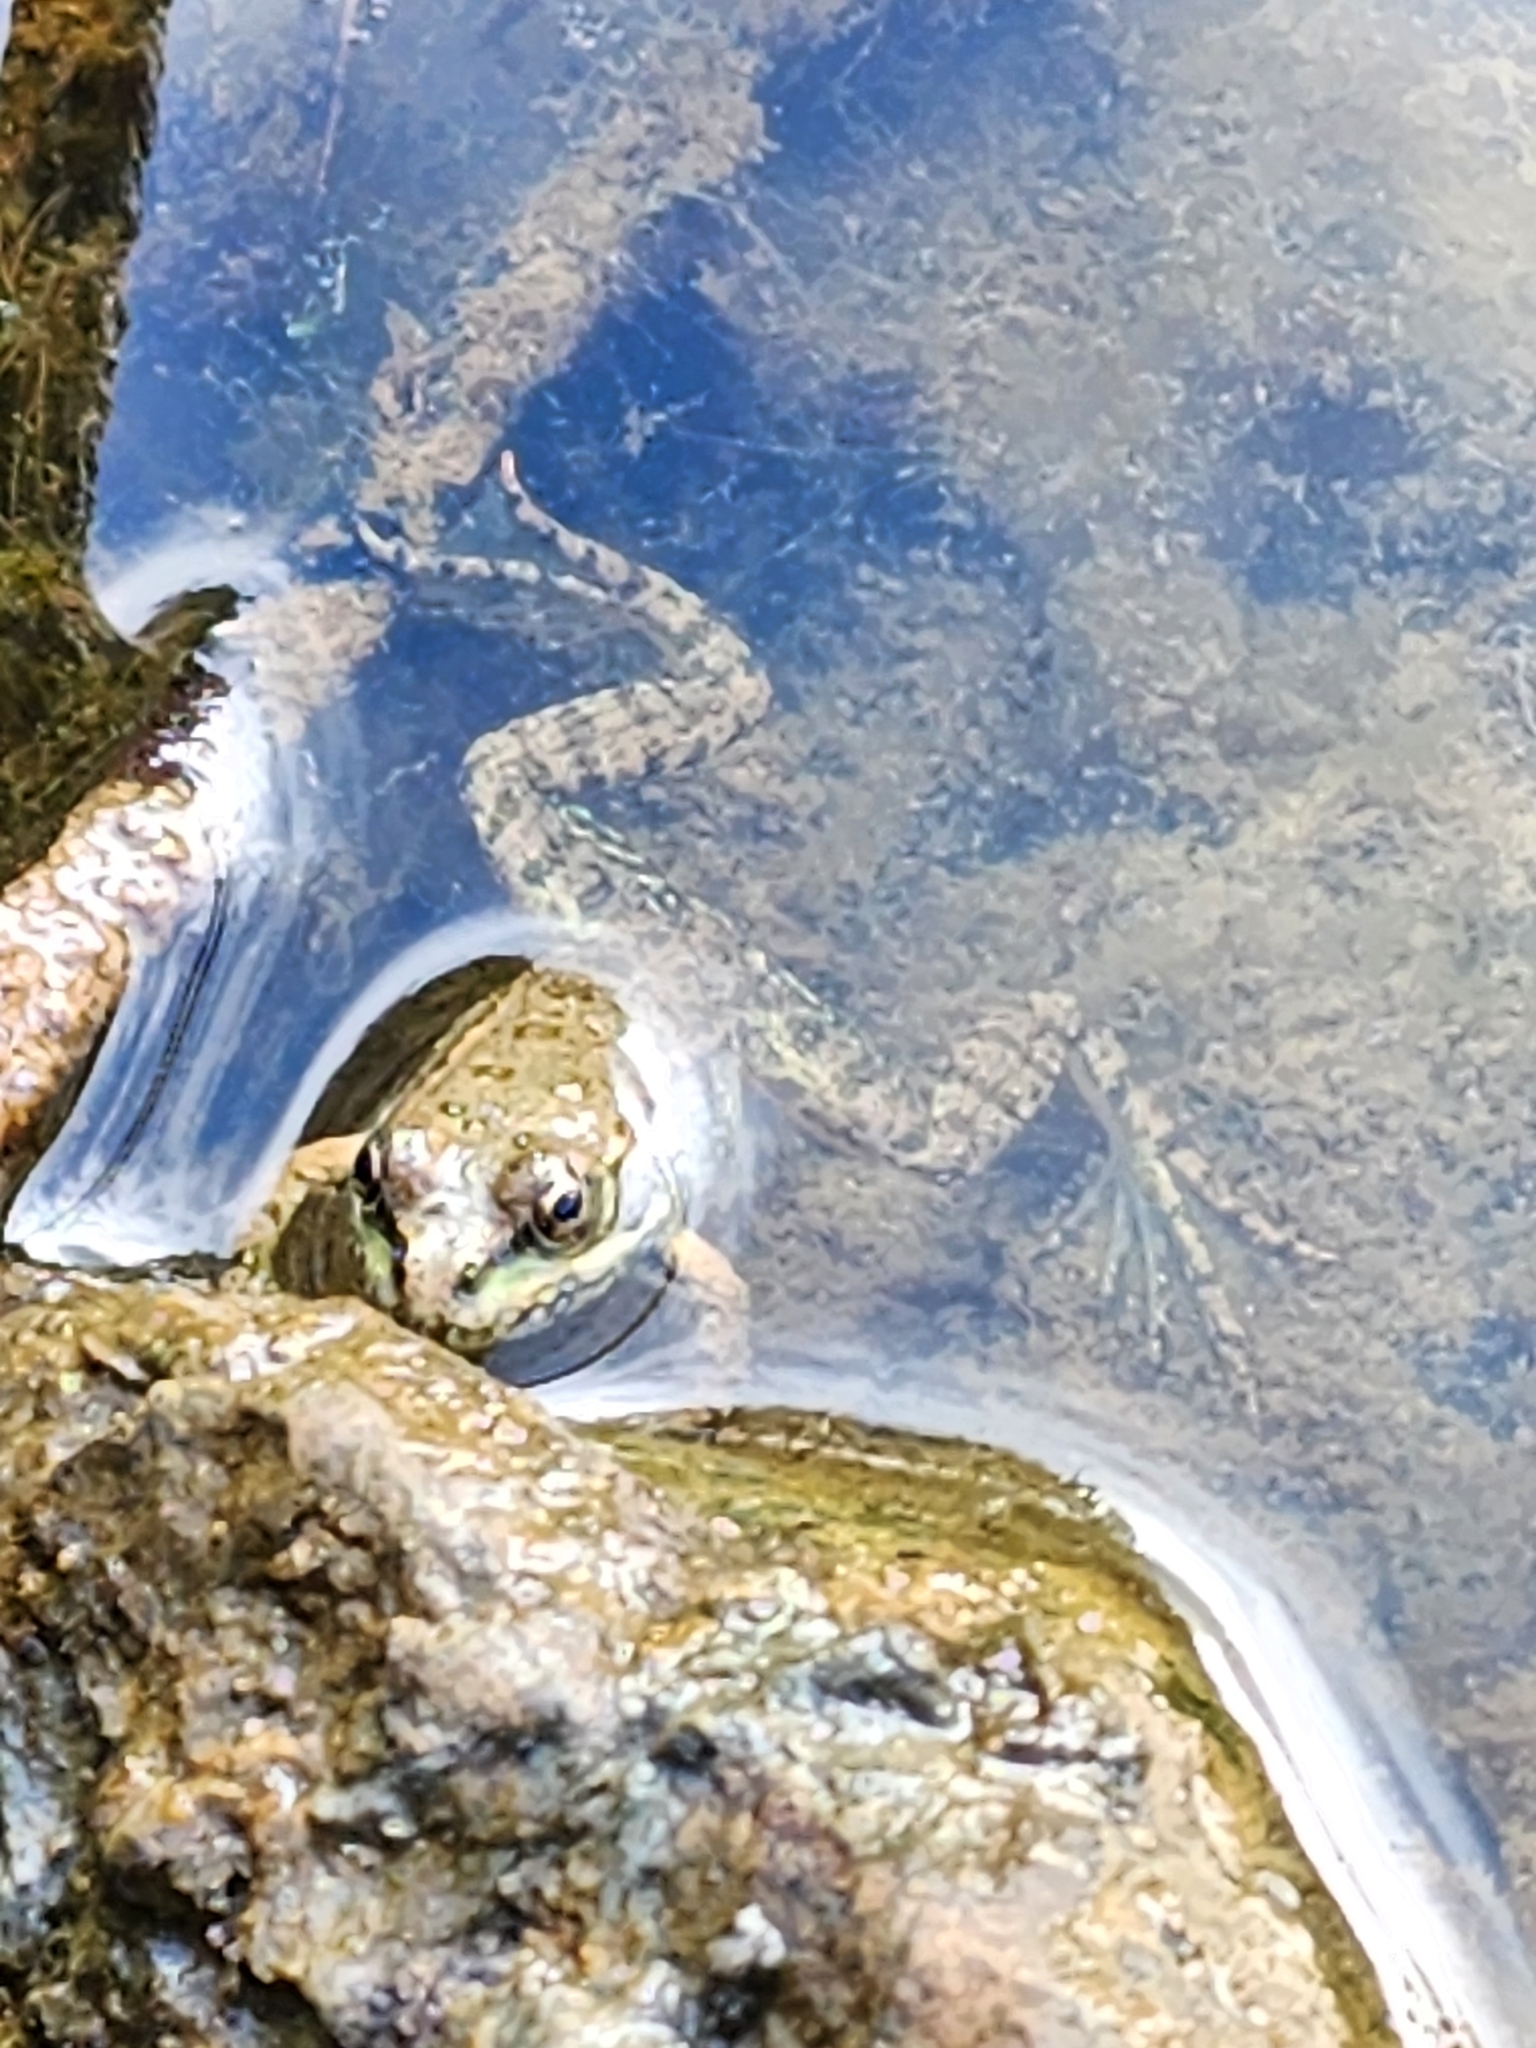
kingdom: Animalia
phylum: Chordata
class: Amphibia
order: Anura
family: Ranidae
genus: Pelophylax
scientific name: Pelophylax
